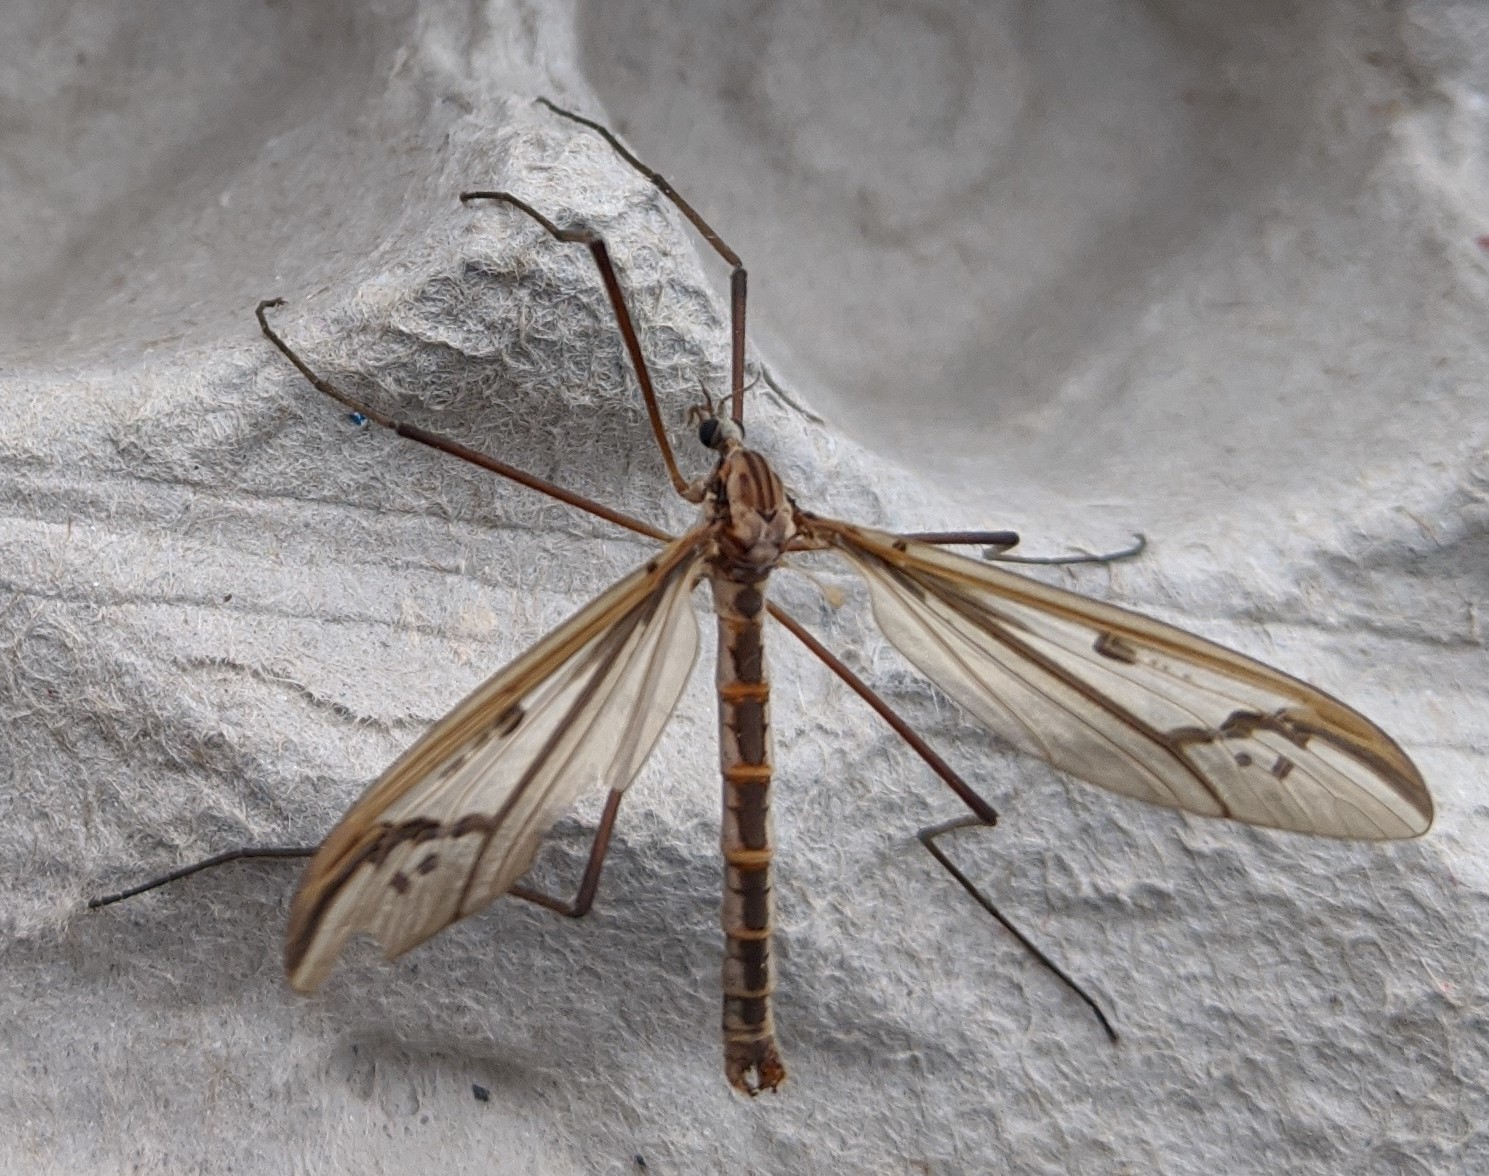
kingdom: Animalia
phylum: Arthropoda
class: Insecta
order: Diptera
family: Pediciidae
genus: Pedicia
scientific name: Pedicia procteriana
